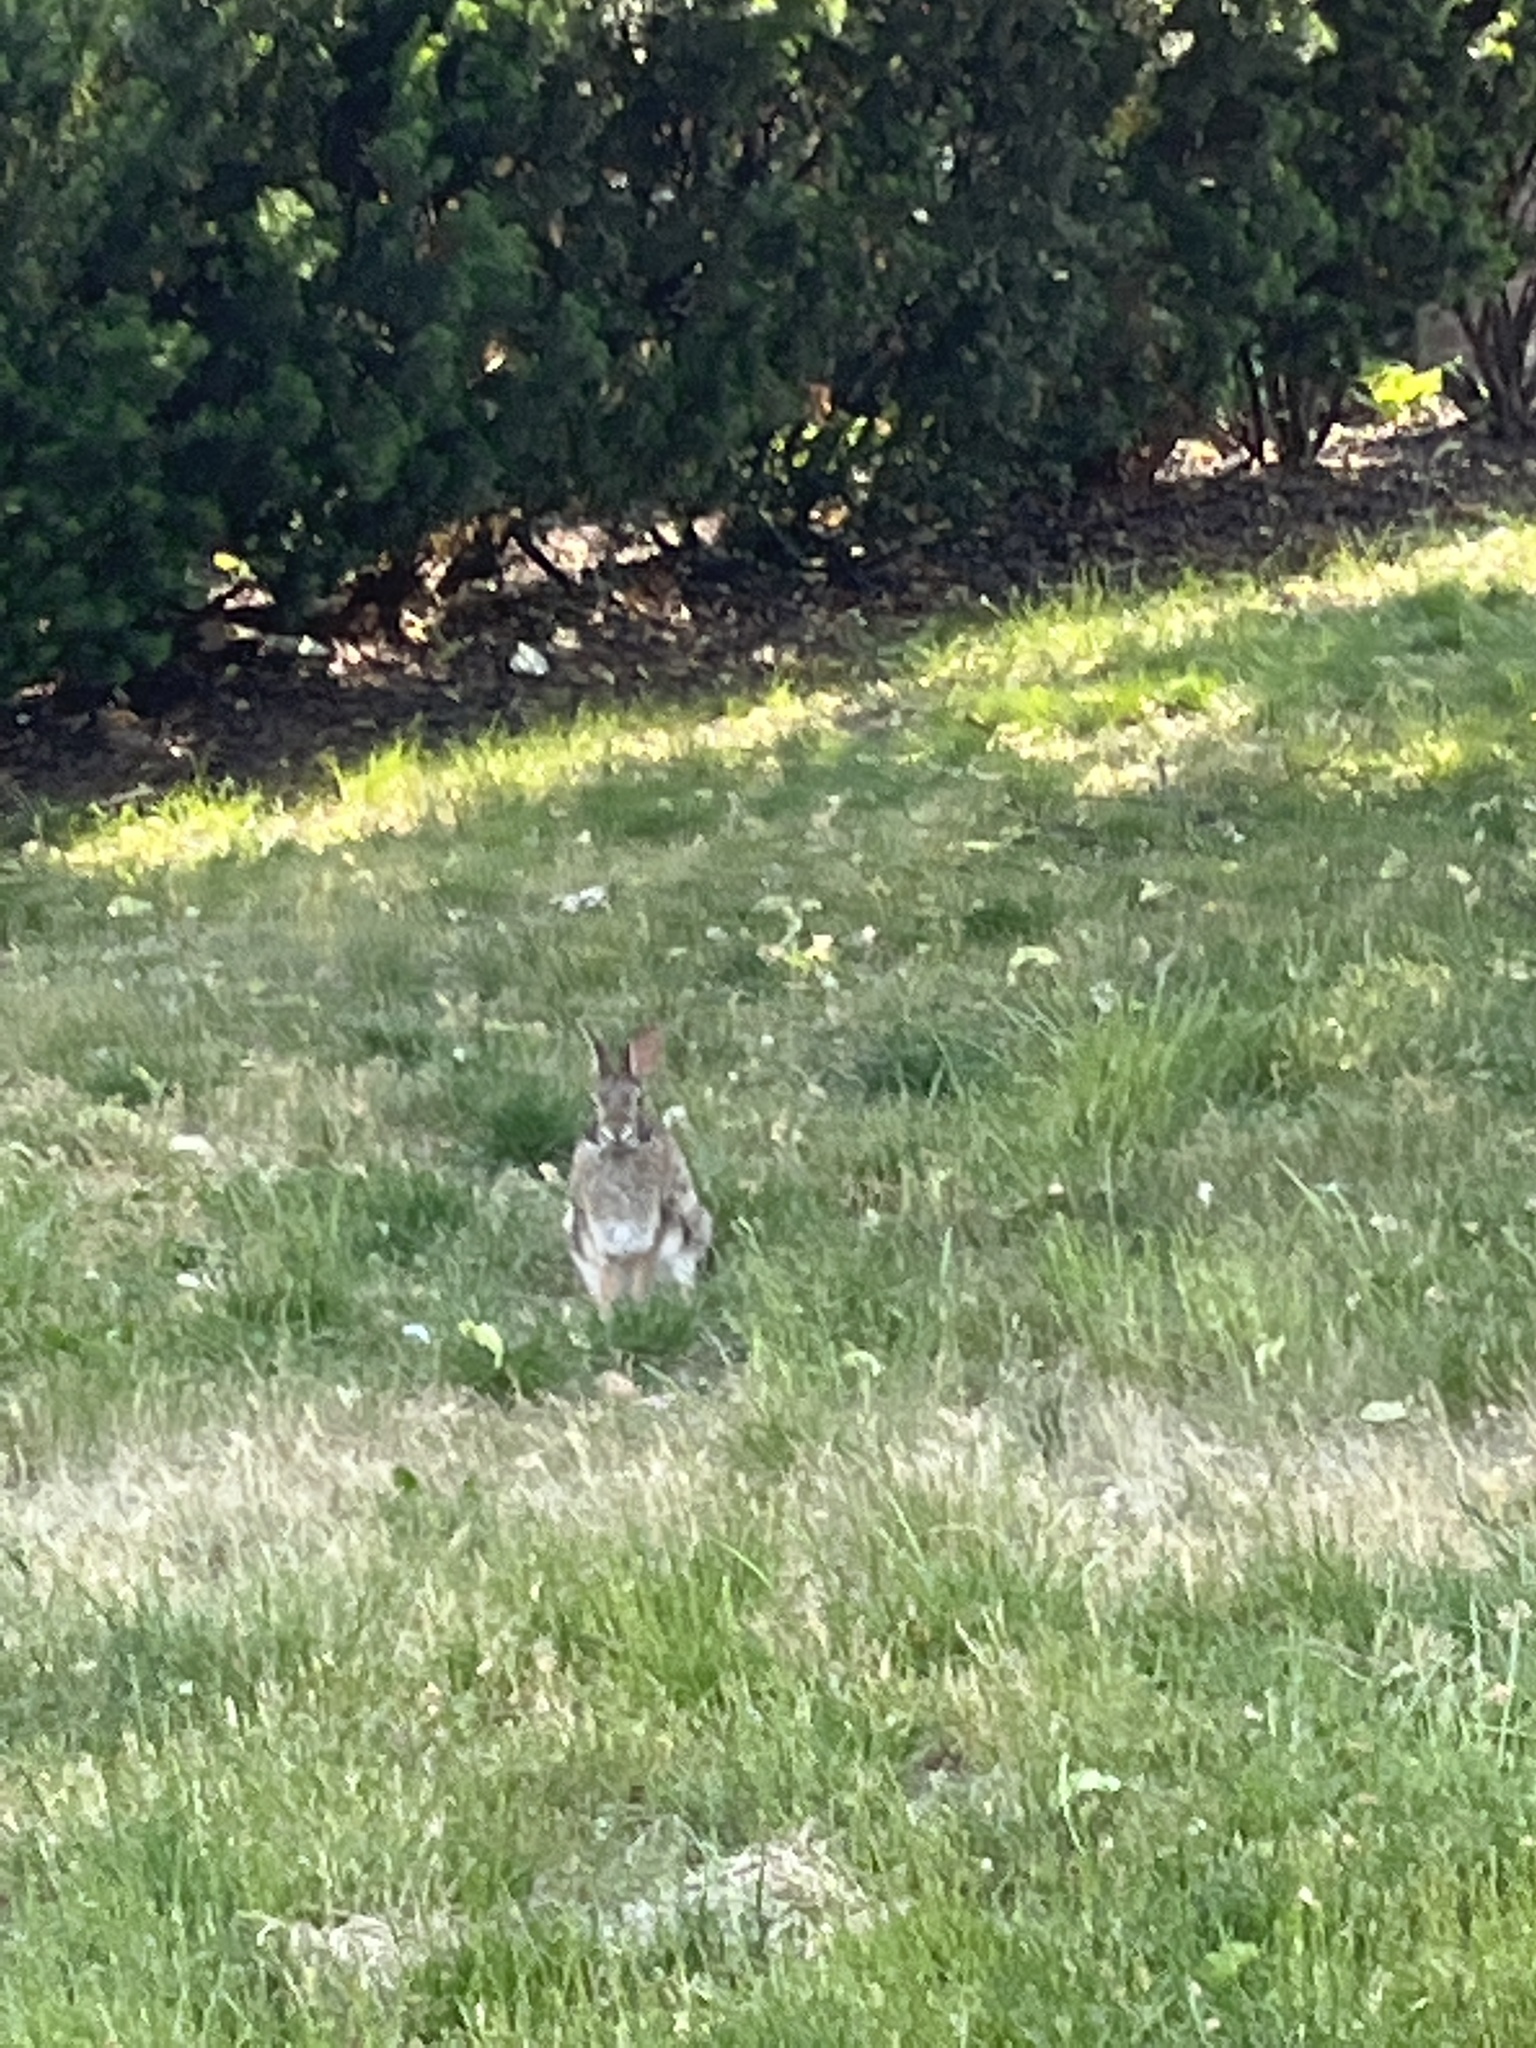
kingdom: Animalia
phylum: Chordata
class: Mammalia
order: Lagomorpha
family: Leporidae
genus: Sylvilagus
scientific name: Sylvilagus floridanus
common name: Eastern cottontail
